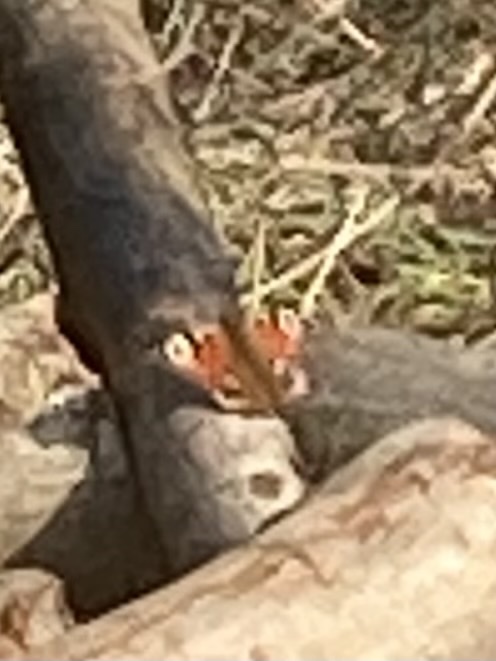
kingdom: Animalia
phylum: Arthropoda
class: Insecta
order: Lepidoptera
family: Nymphalidae
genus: Aglais
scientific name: Aglais io
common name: Peacock
